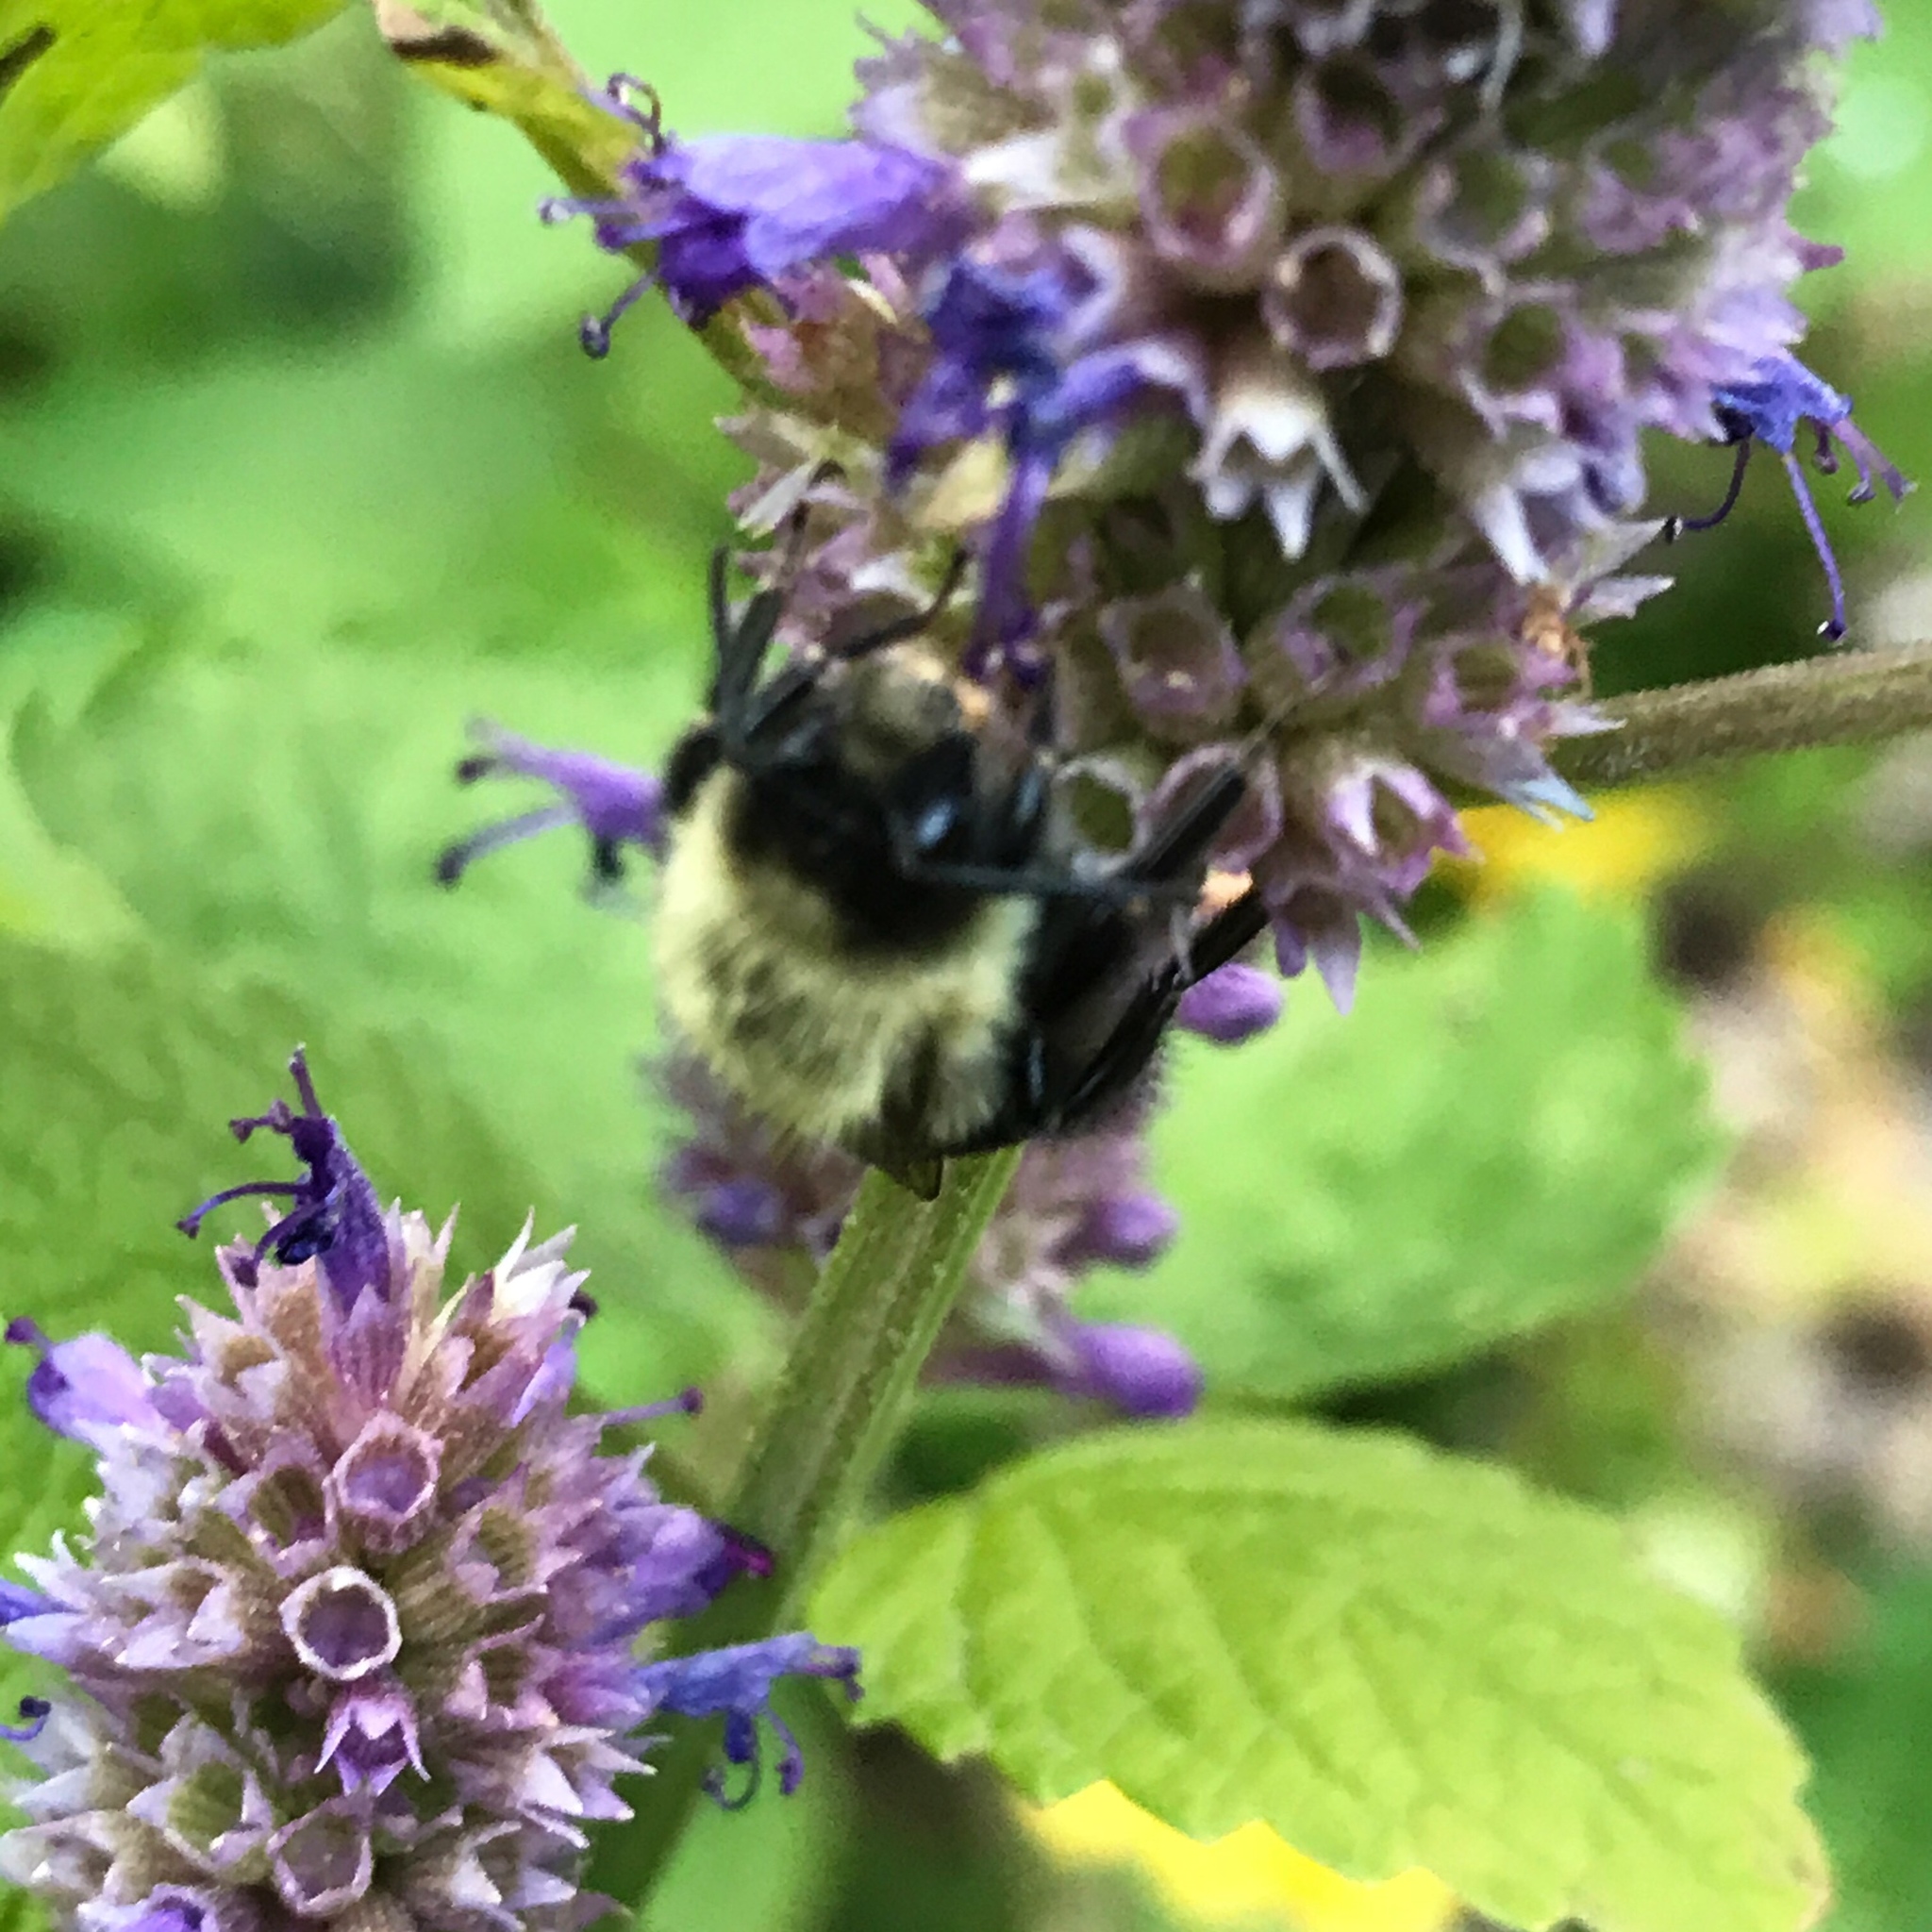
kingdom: Animalia
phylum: Arthropoda
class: Insecta
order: Hymenoptera
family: Apidae
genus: Bombus
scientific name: Bombus impatiens
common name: Common eastern bumble bee
